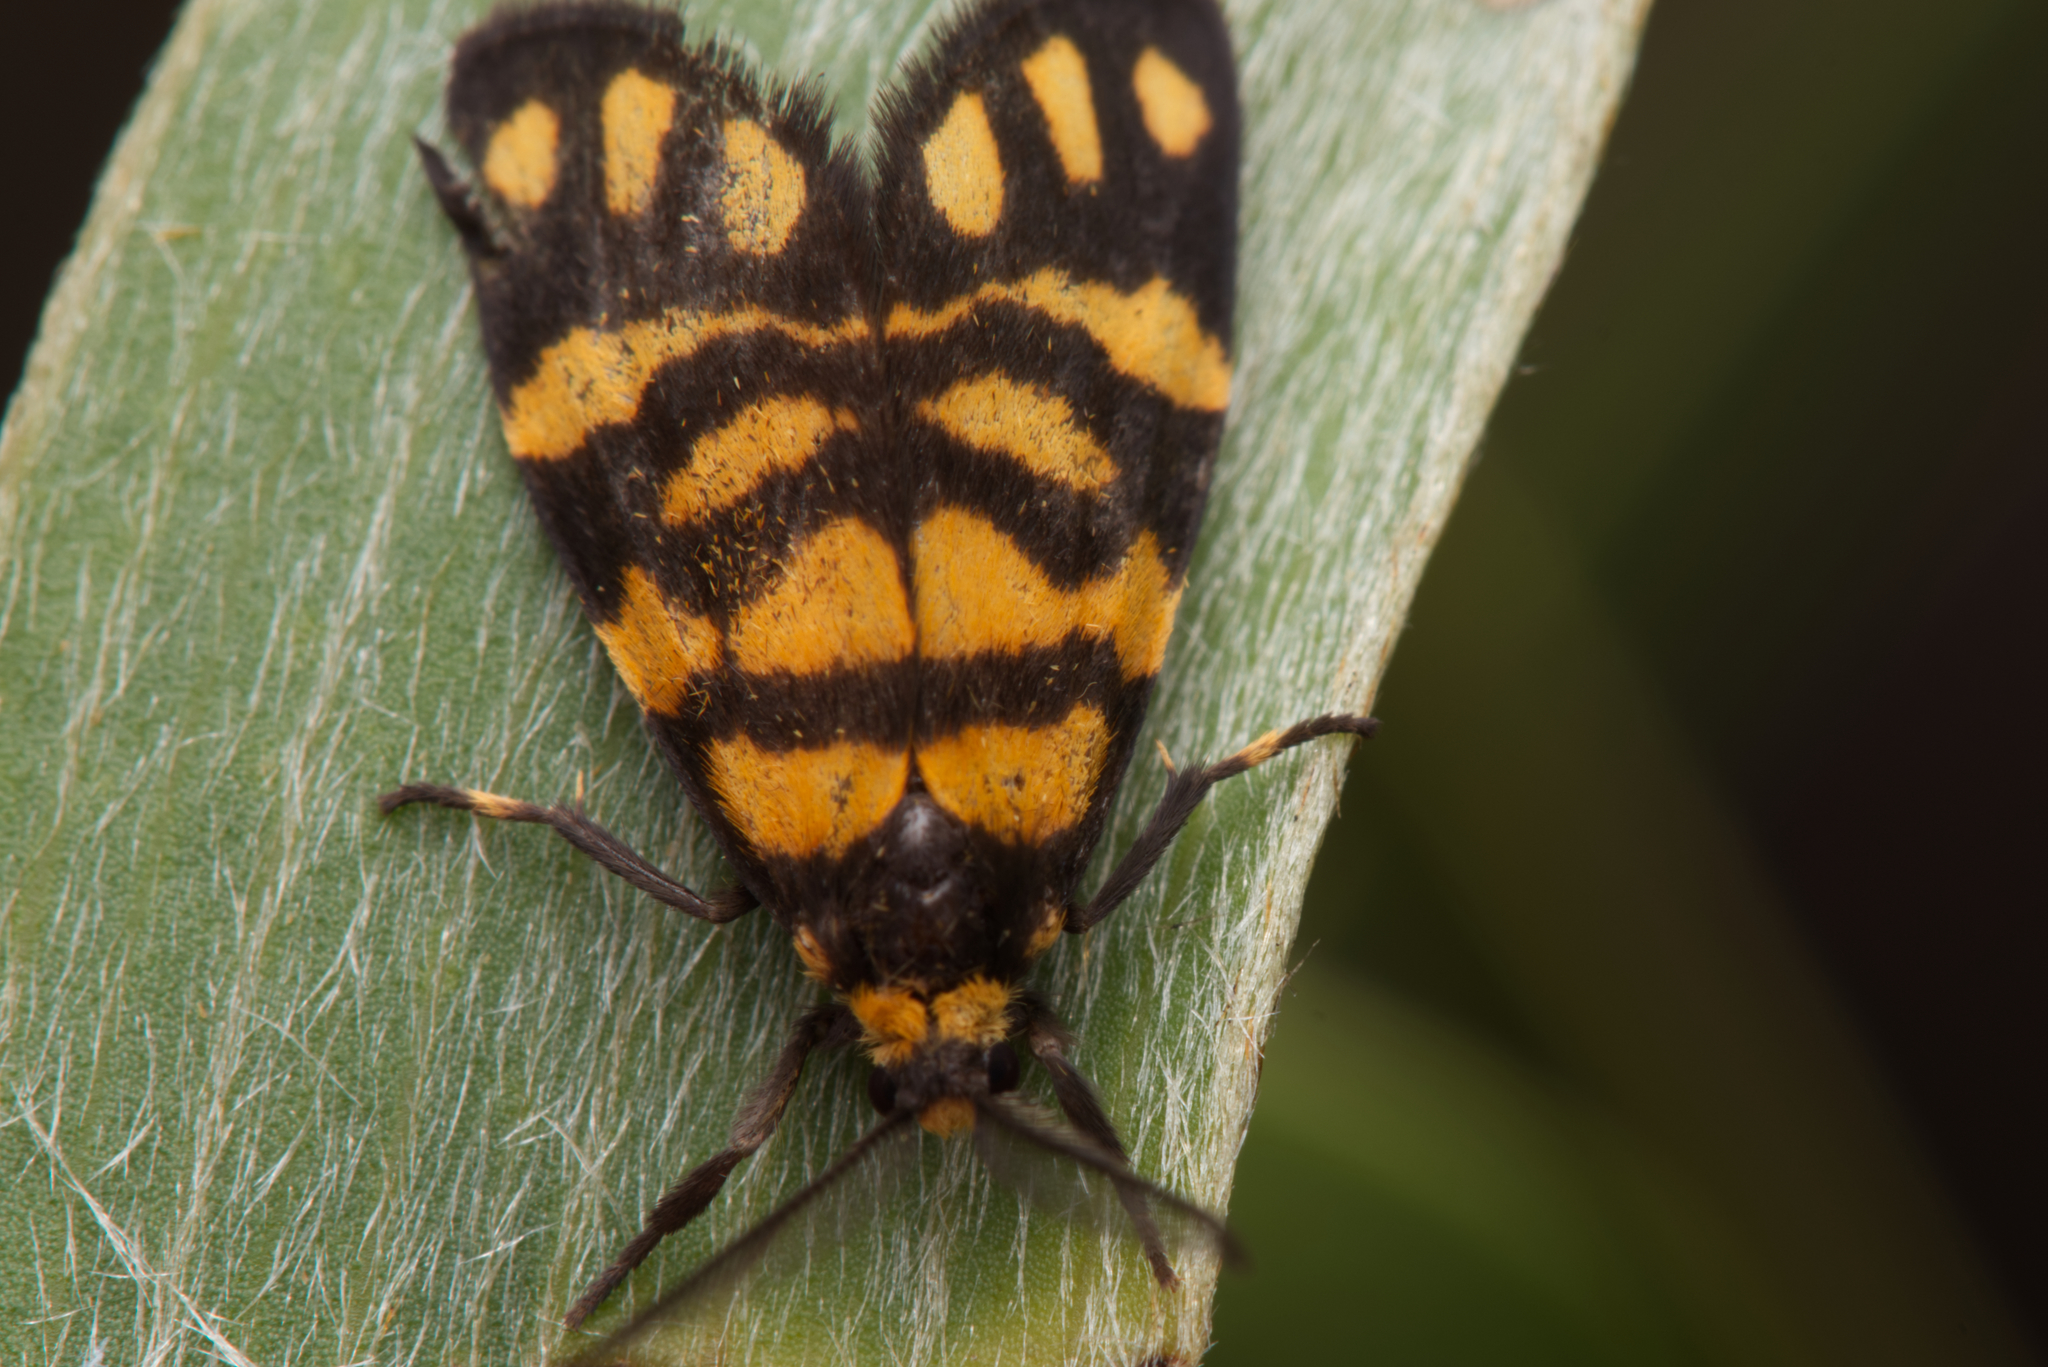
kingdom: Animalia
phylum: Arthropoda
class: Insecta
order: Lepidoptera
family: Erebidae
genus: Asura
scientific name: Asura lydia
